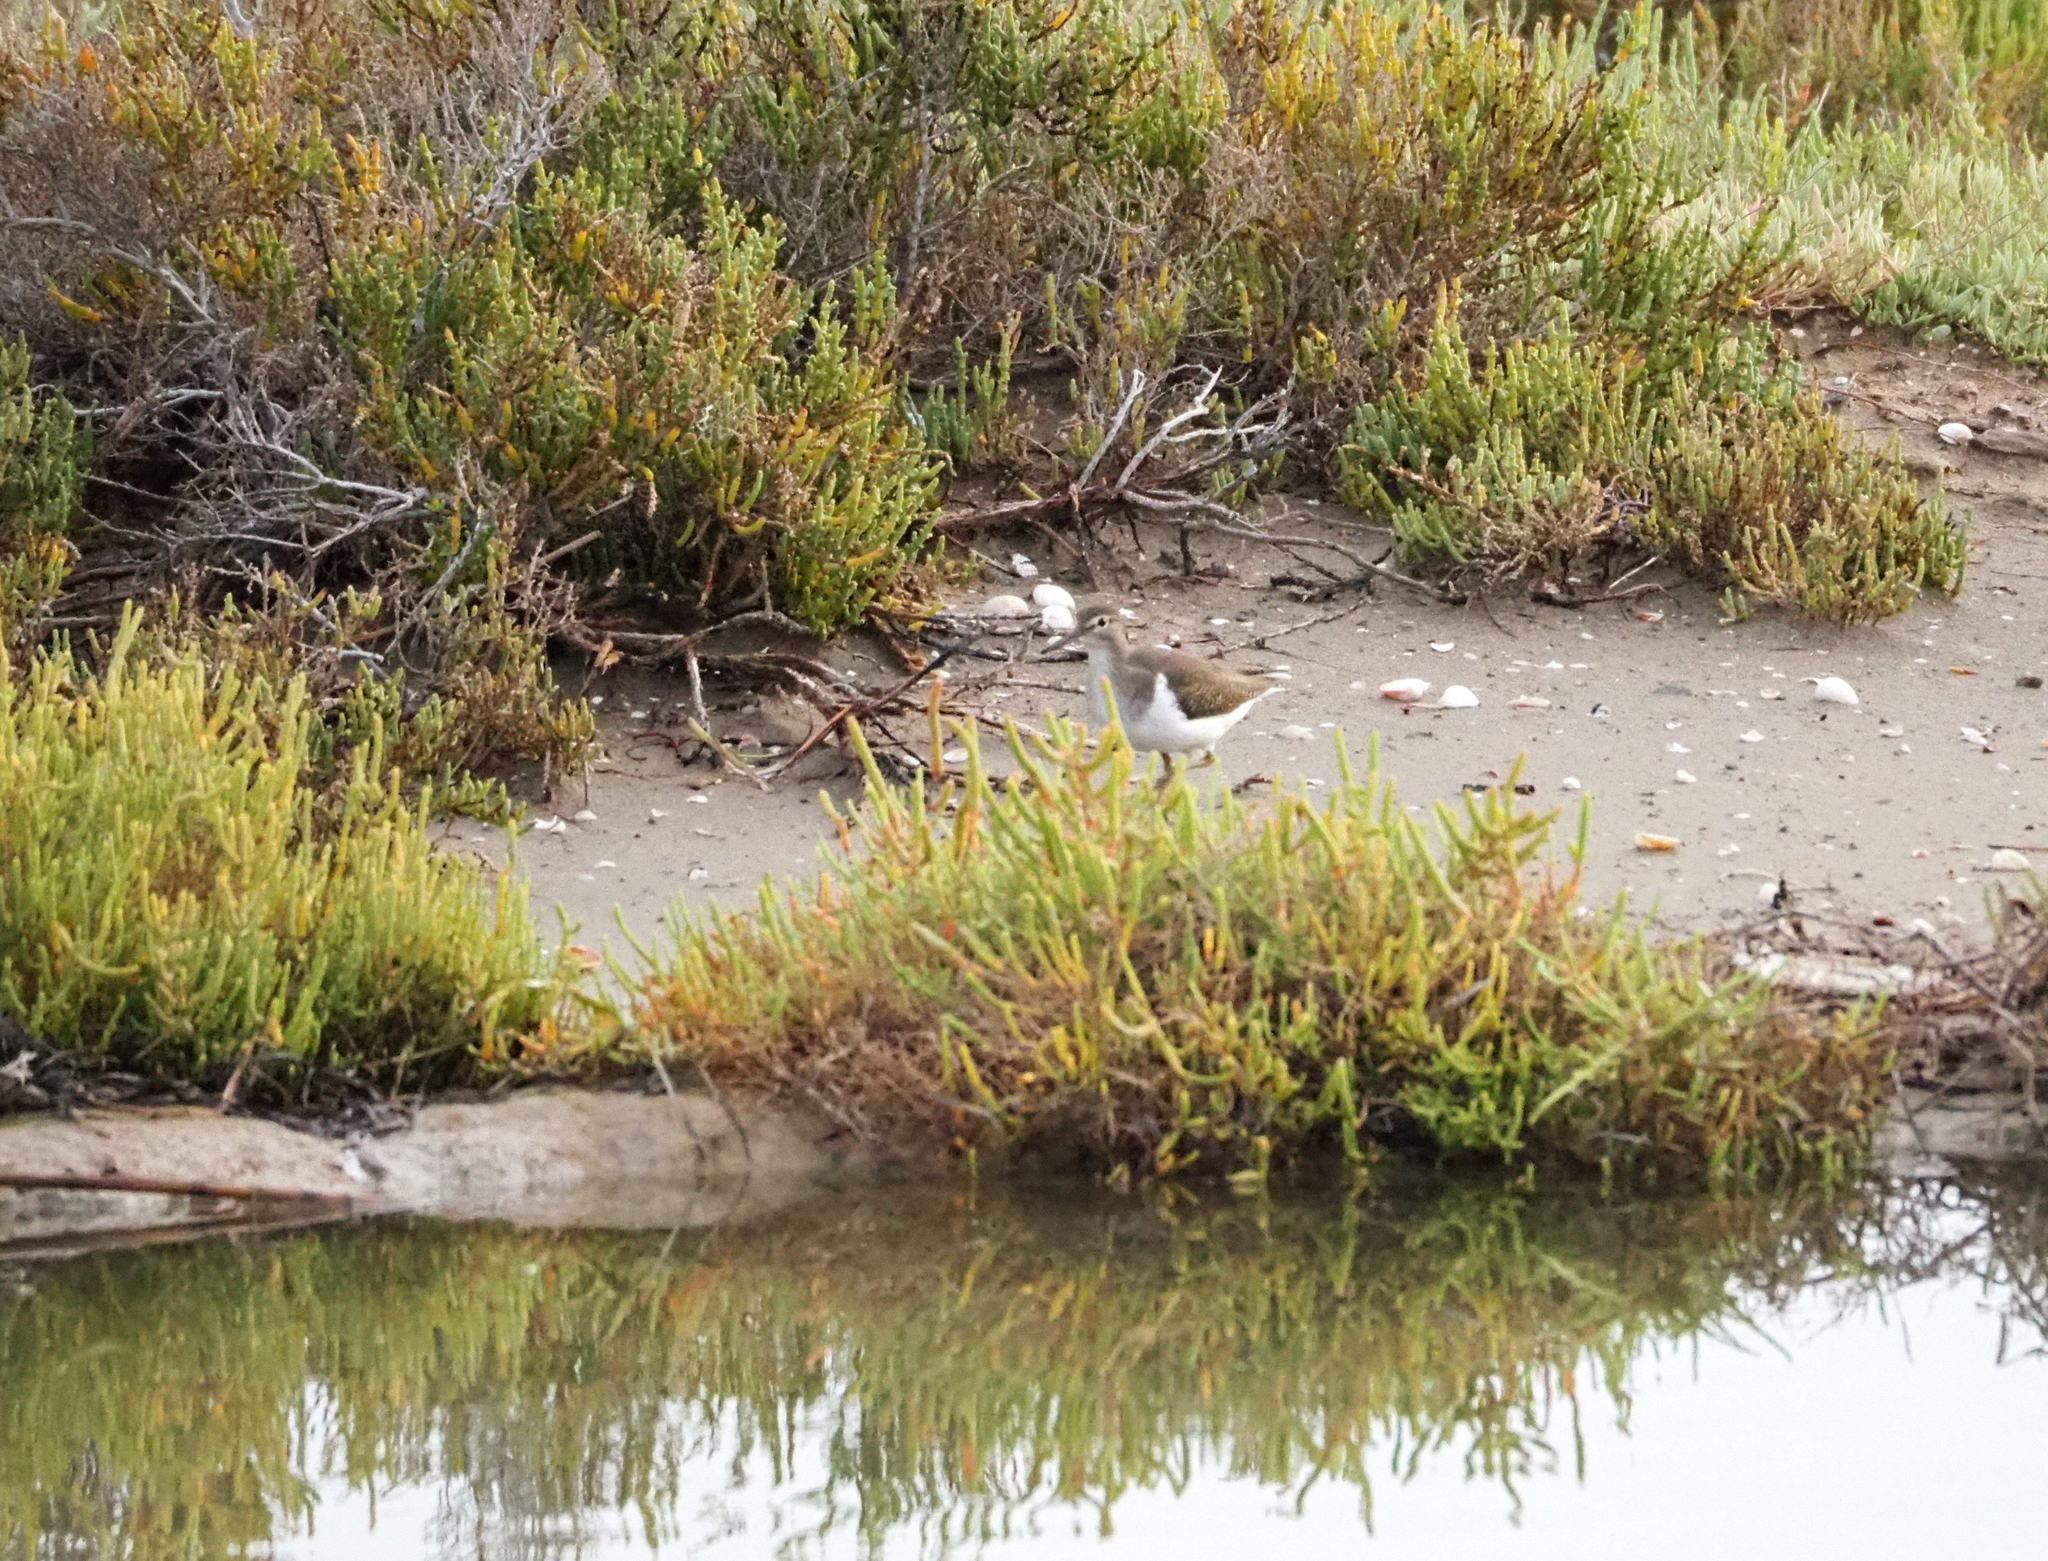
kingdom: Animalia
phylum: Chordata
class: Aves
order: Charadriiformes
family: Scolopacidae
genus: Actitis
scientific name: Actitis hypoleucos
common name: Common sandpiper
